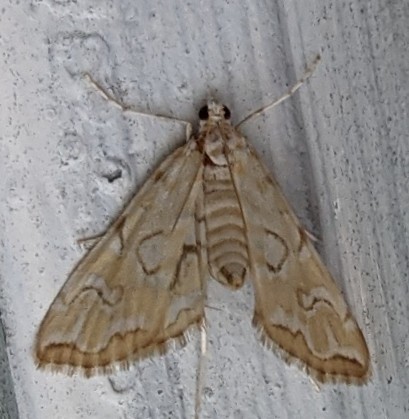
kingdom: Animalia
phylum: Arthropoda
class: Insecta
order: Lepidoptera
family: Crambidae
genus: Elophila
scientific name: Elophila icciusalis
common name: Pondside pyralid moth
